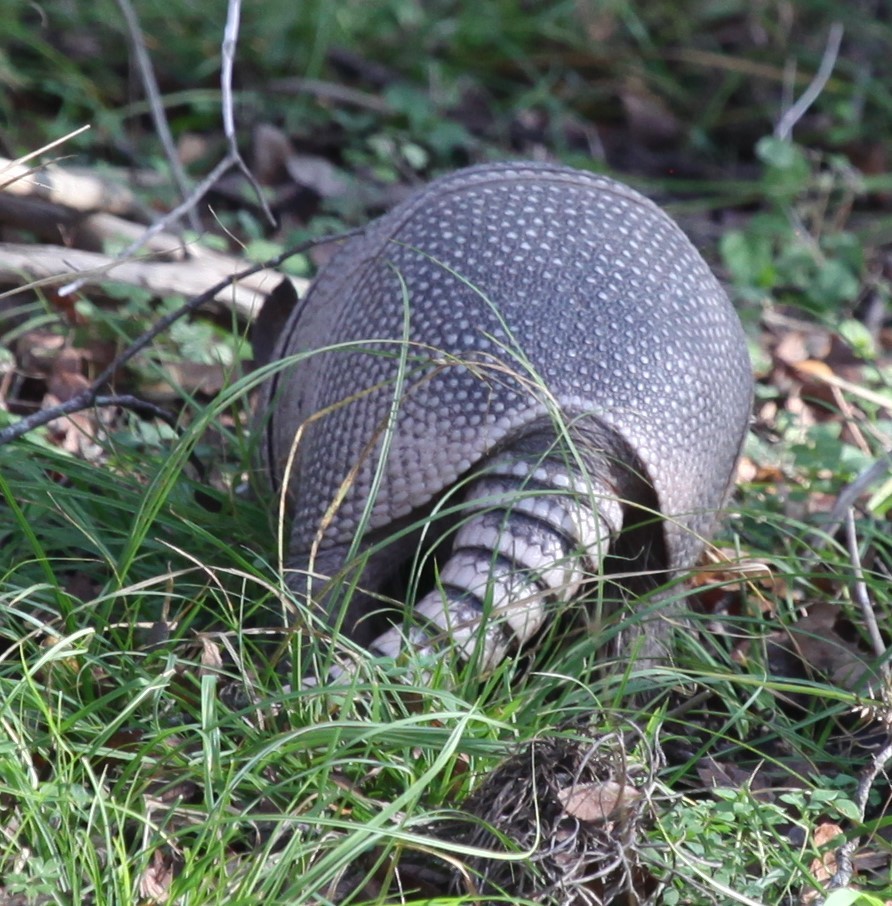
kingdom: Animalia
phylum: Chordata
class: Mammalia
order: Cingulata
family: Dasypodidae
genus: Dasypus
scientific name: Dasypus novemcinctus
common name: Nine-banded armadillo
